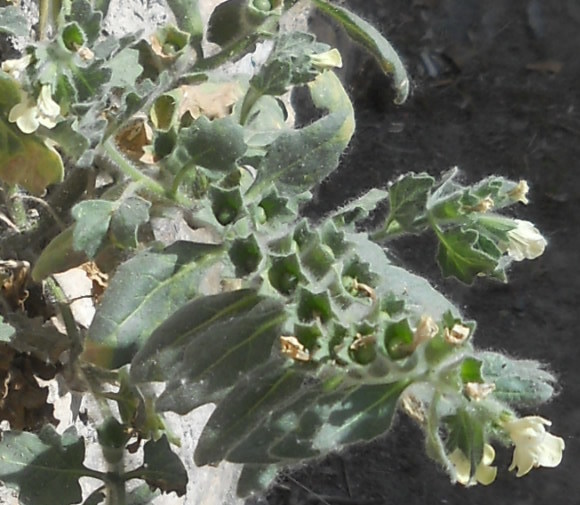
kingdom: Plantae
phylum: Tracheophyta
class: Magnoliopsida
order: Solanales
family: Solanaceae
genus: Hyoscyamus
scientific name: Hyoscyamus albus
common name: White henbane
